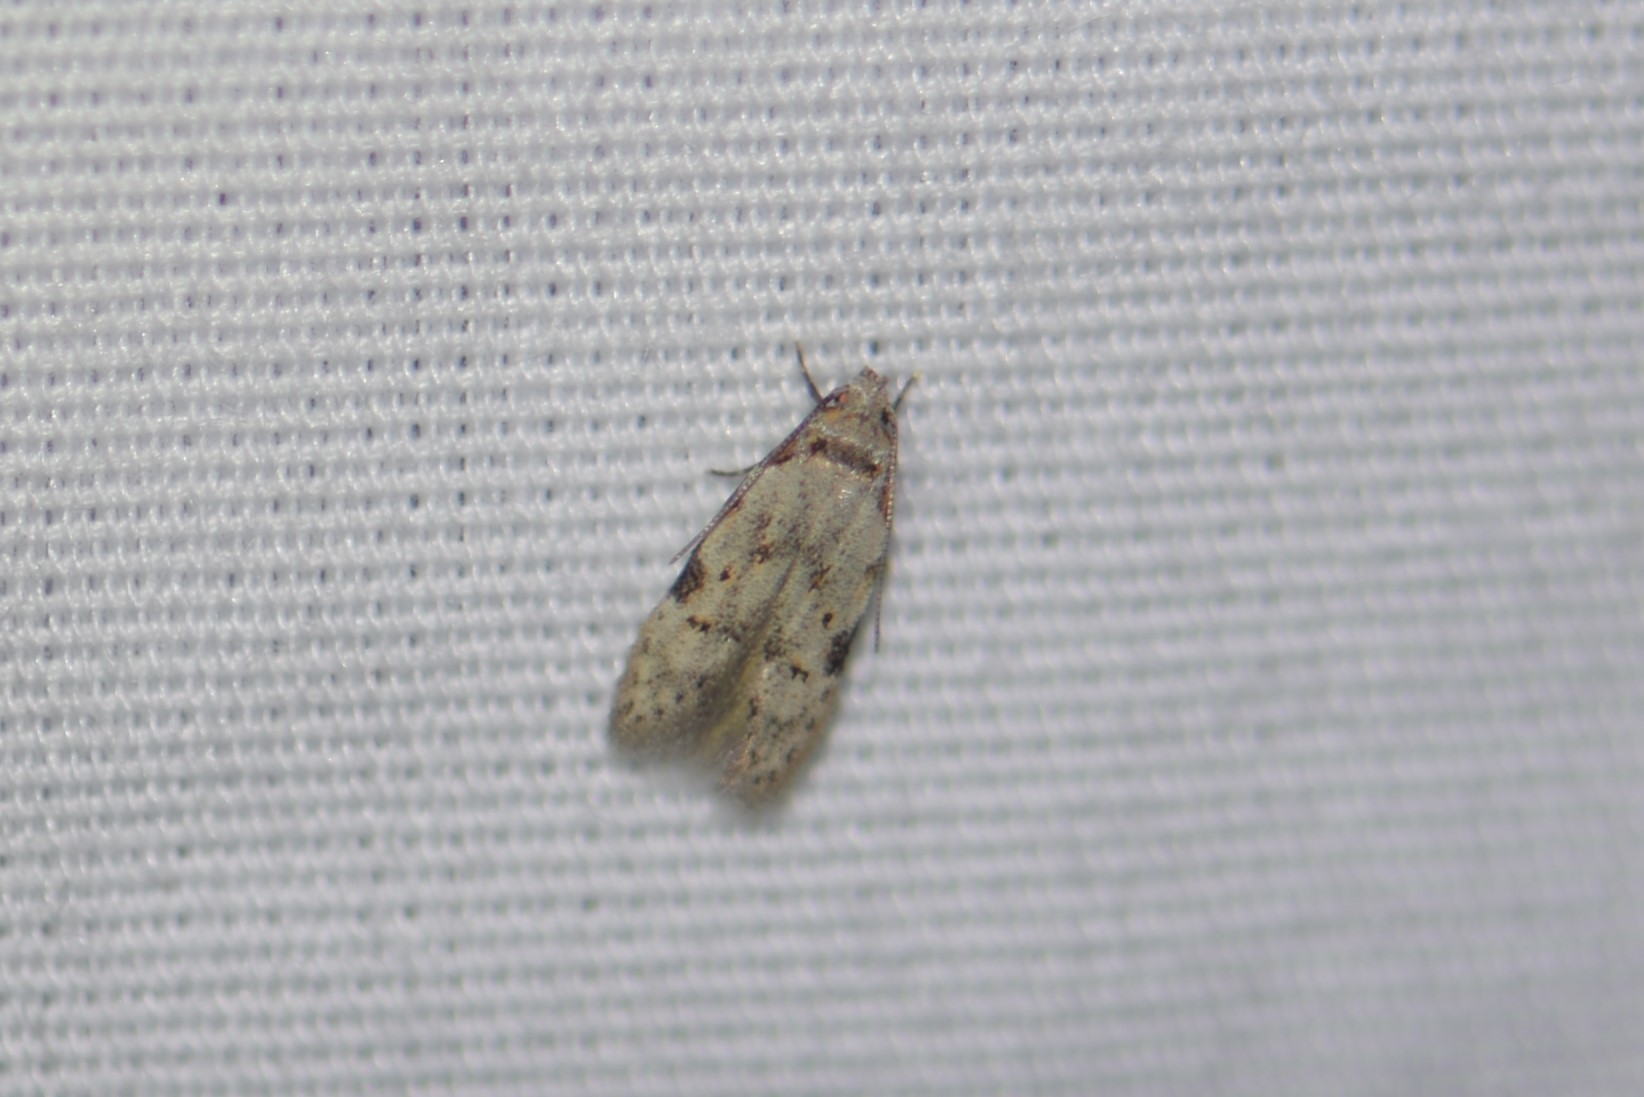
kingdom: Animalia
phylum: Arthropoda
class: Insecta
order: Lepidoptera
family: Autostichidae
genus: Taygete
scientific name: Taygete attributella
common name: Triangle-marked twirler moth
